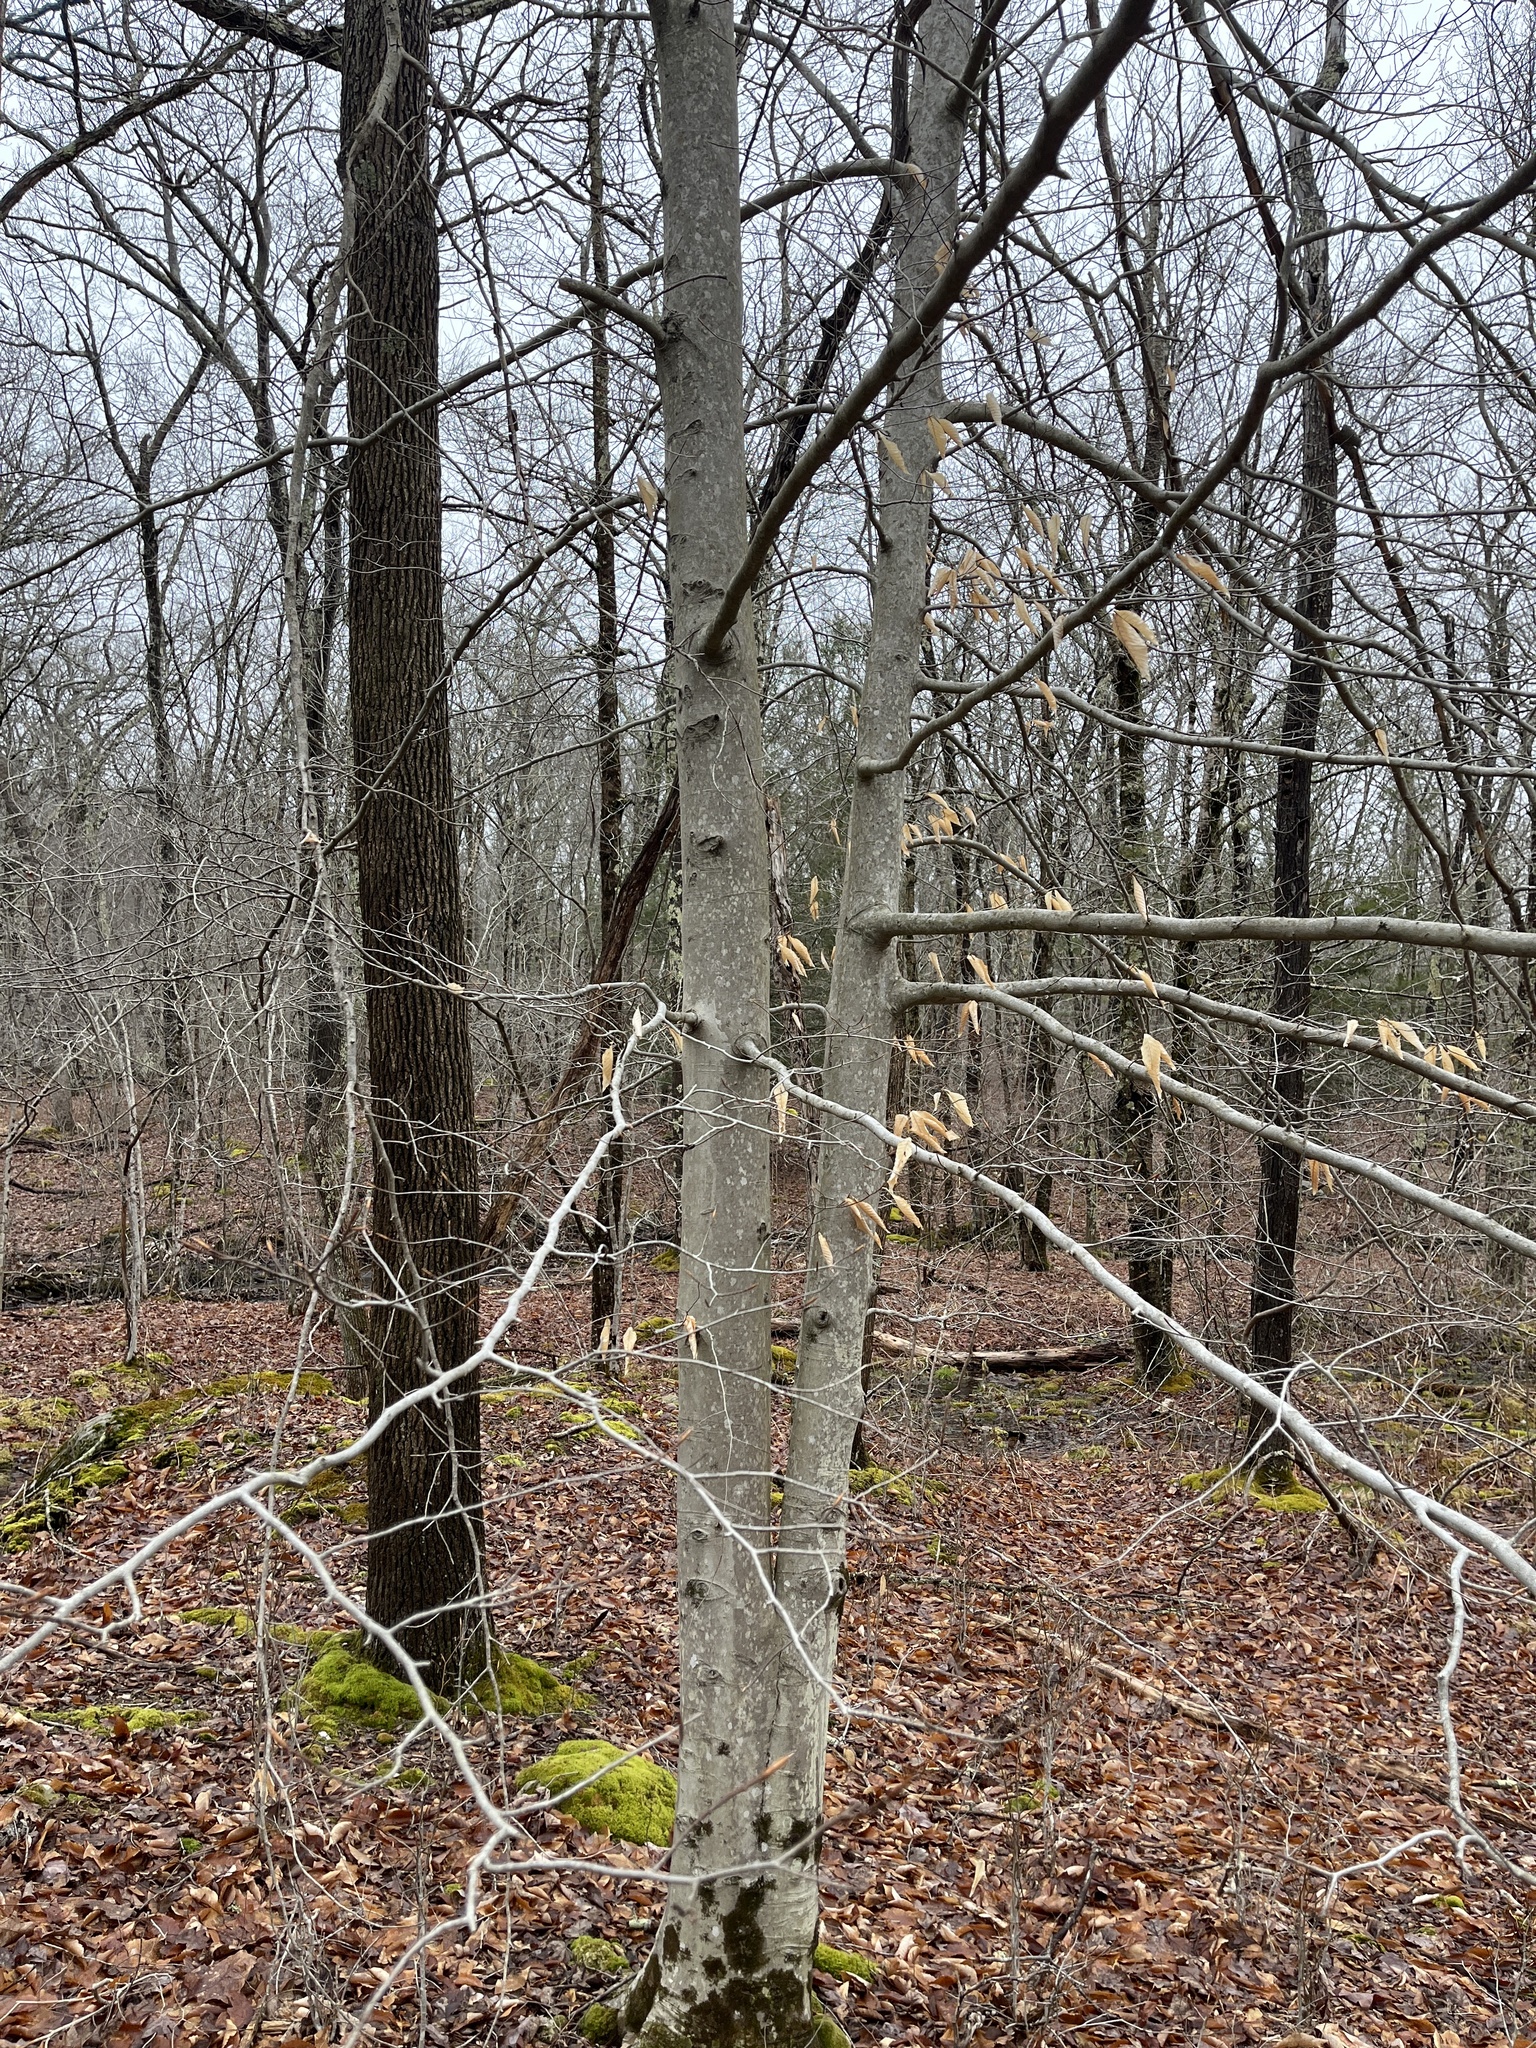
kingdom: Plantae
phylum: Tracheophyta
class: Magnoliopsida
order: Fagales
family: Fagaceae
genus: Fagus
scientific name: Fagus grandifolia
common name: American beech
